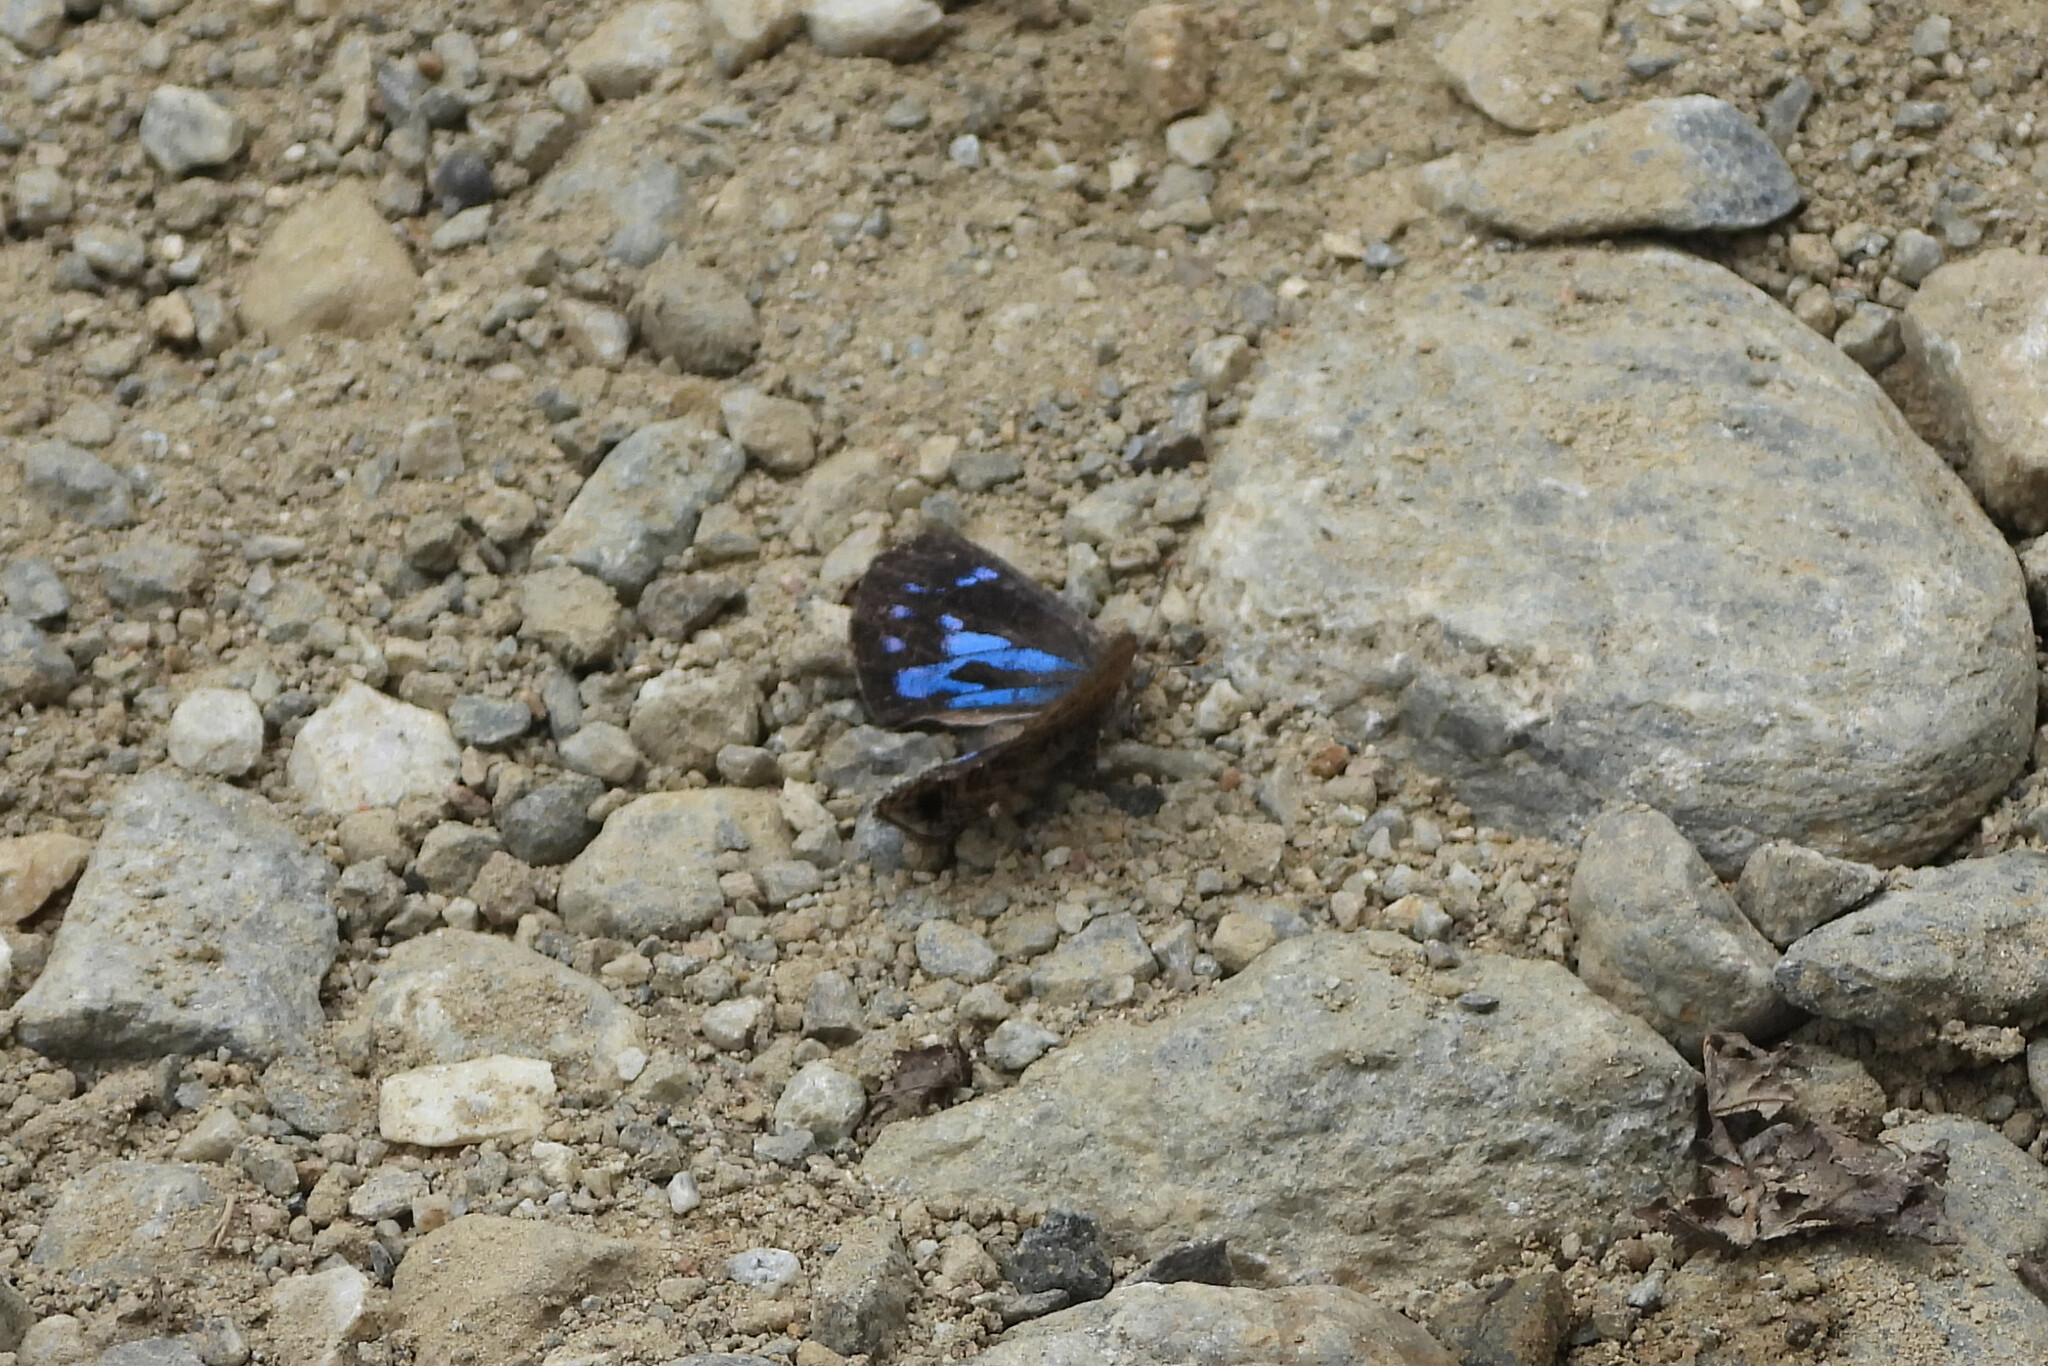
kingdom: Animalia
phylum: Arthropoda
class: Insecta
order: Lepidoptera
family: Lycaenidae
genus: Poritia
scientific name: Poritia hewitsoni
